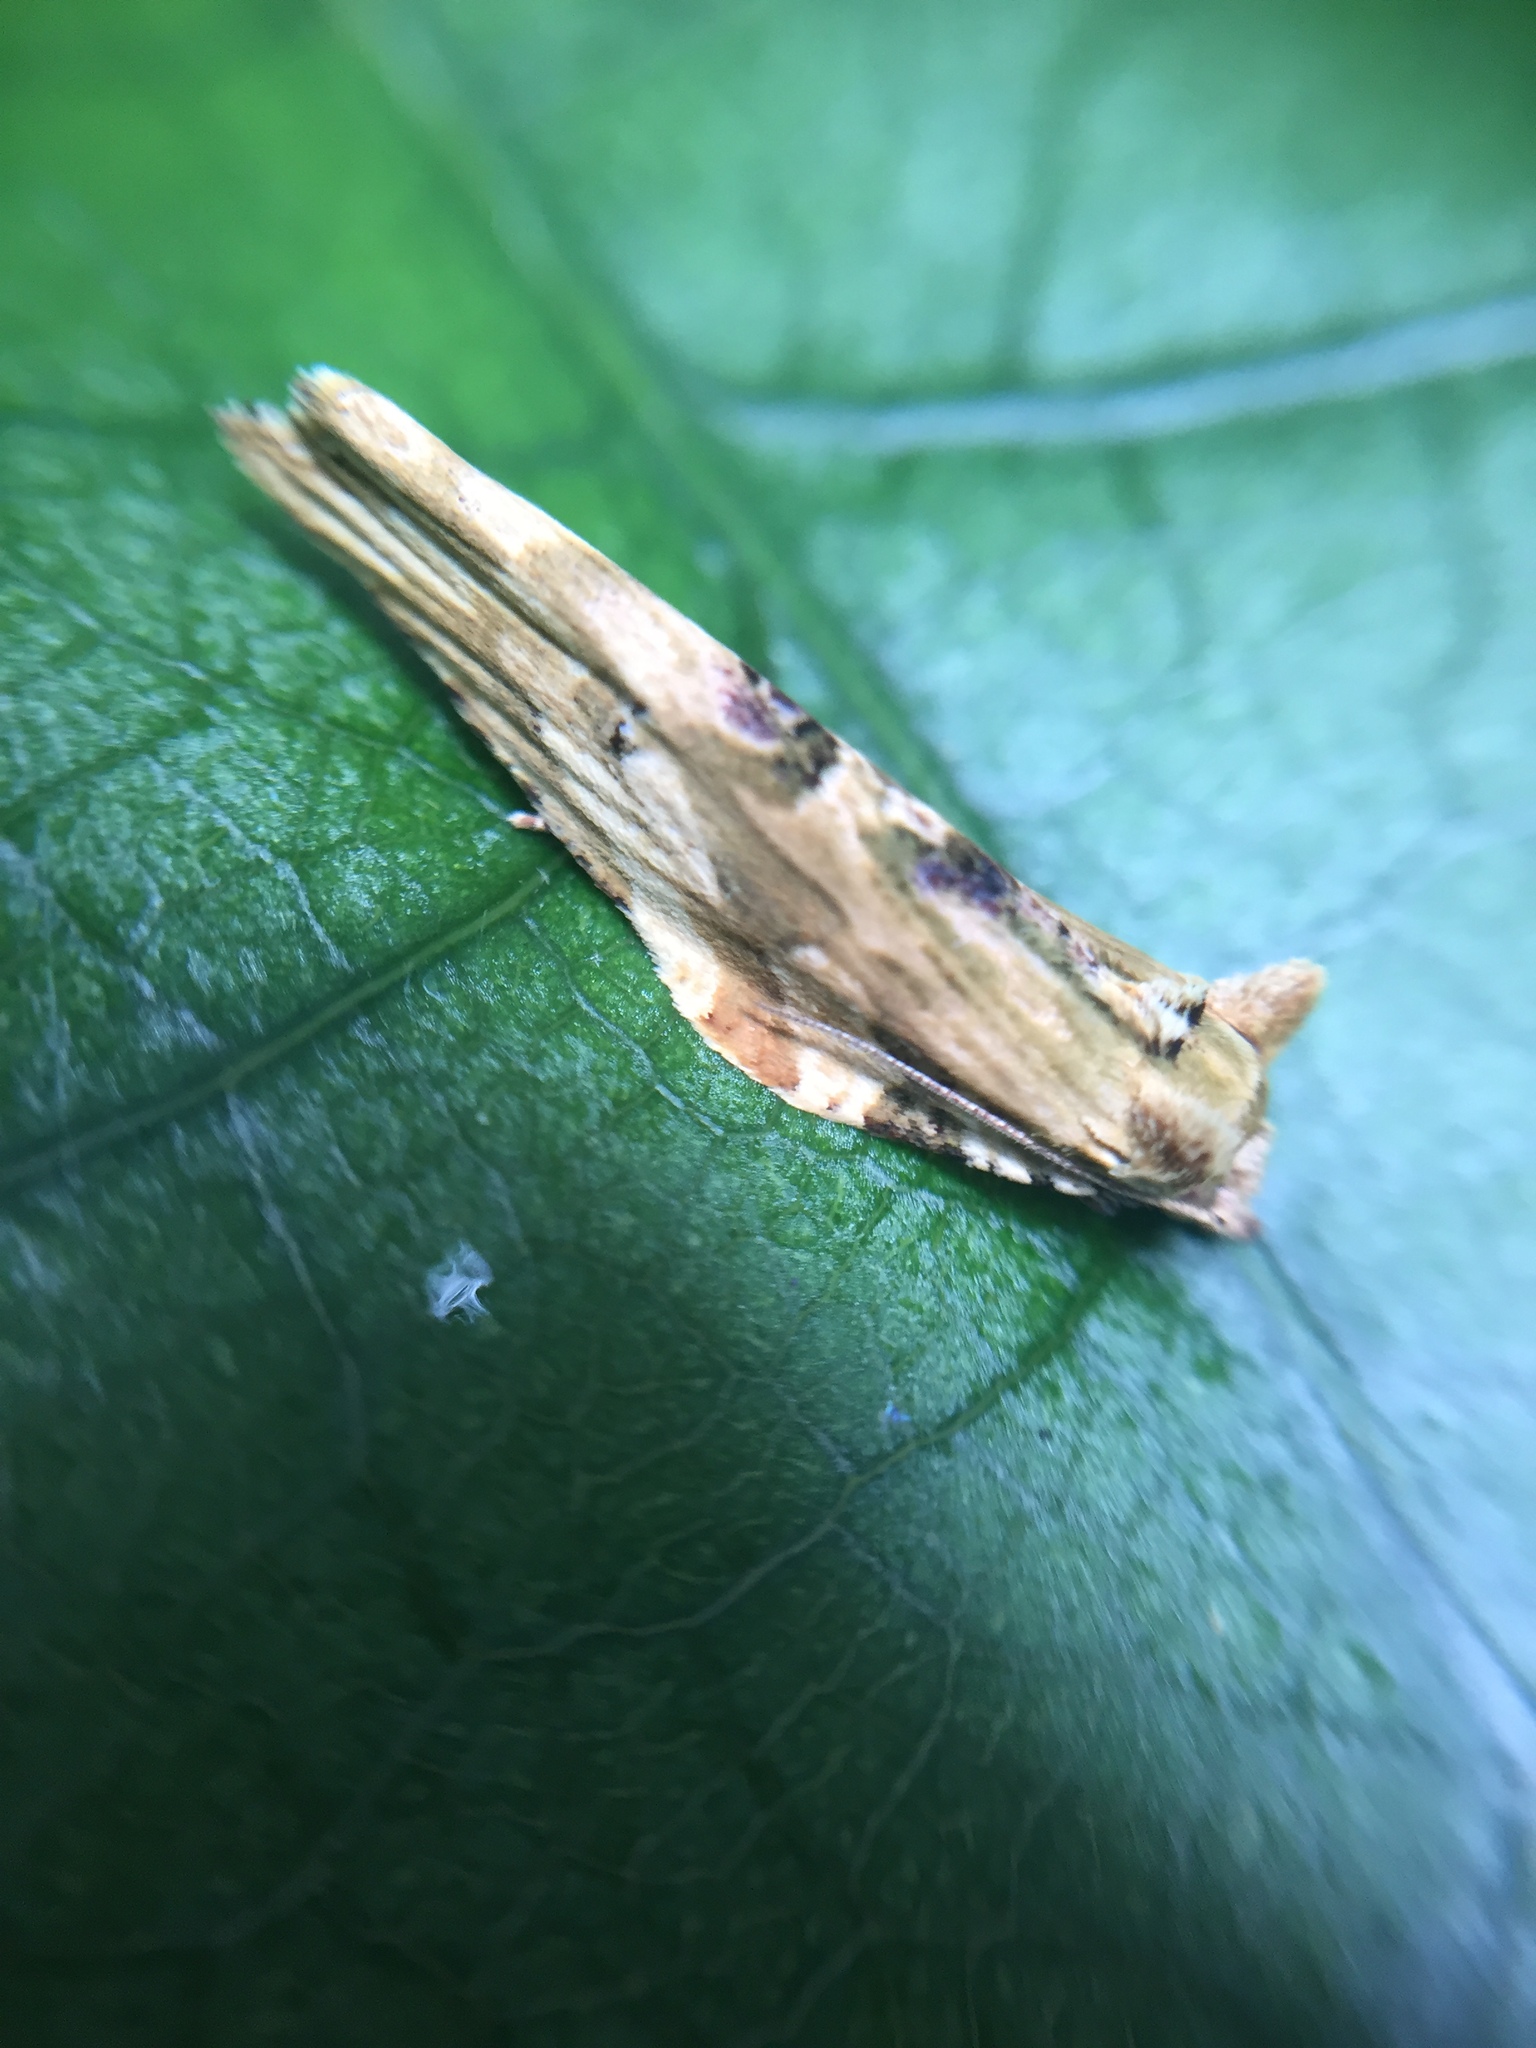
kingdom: Animalia
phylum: Arthropoda
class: Insecta
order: Lepidoptera
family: Tortricidae
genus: Epalxiphora
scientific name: Epalxiphora axenana
